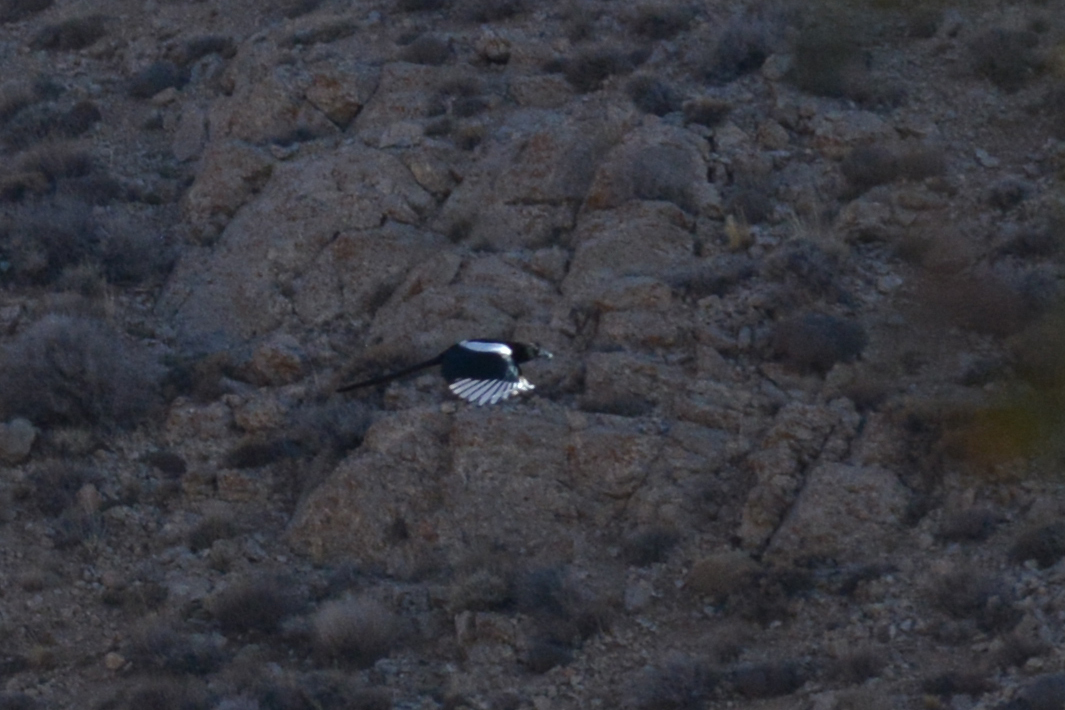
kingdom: Animalia
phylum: Chordata
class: Aves
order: Passeriformes
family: Corvidae
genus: Pica
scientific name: Pica pica
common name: Eurasian magpie
